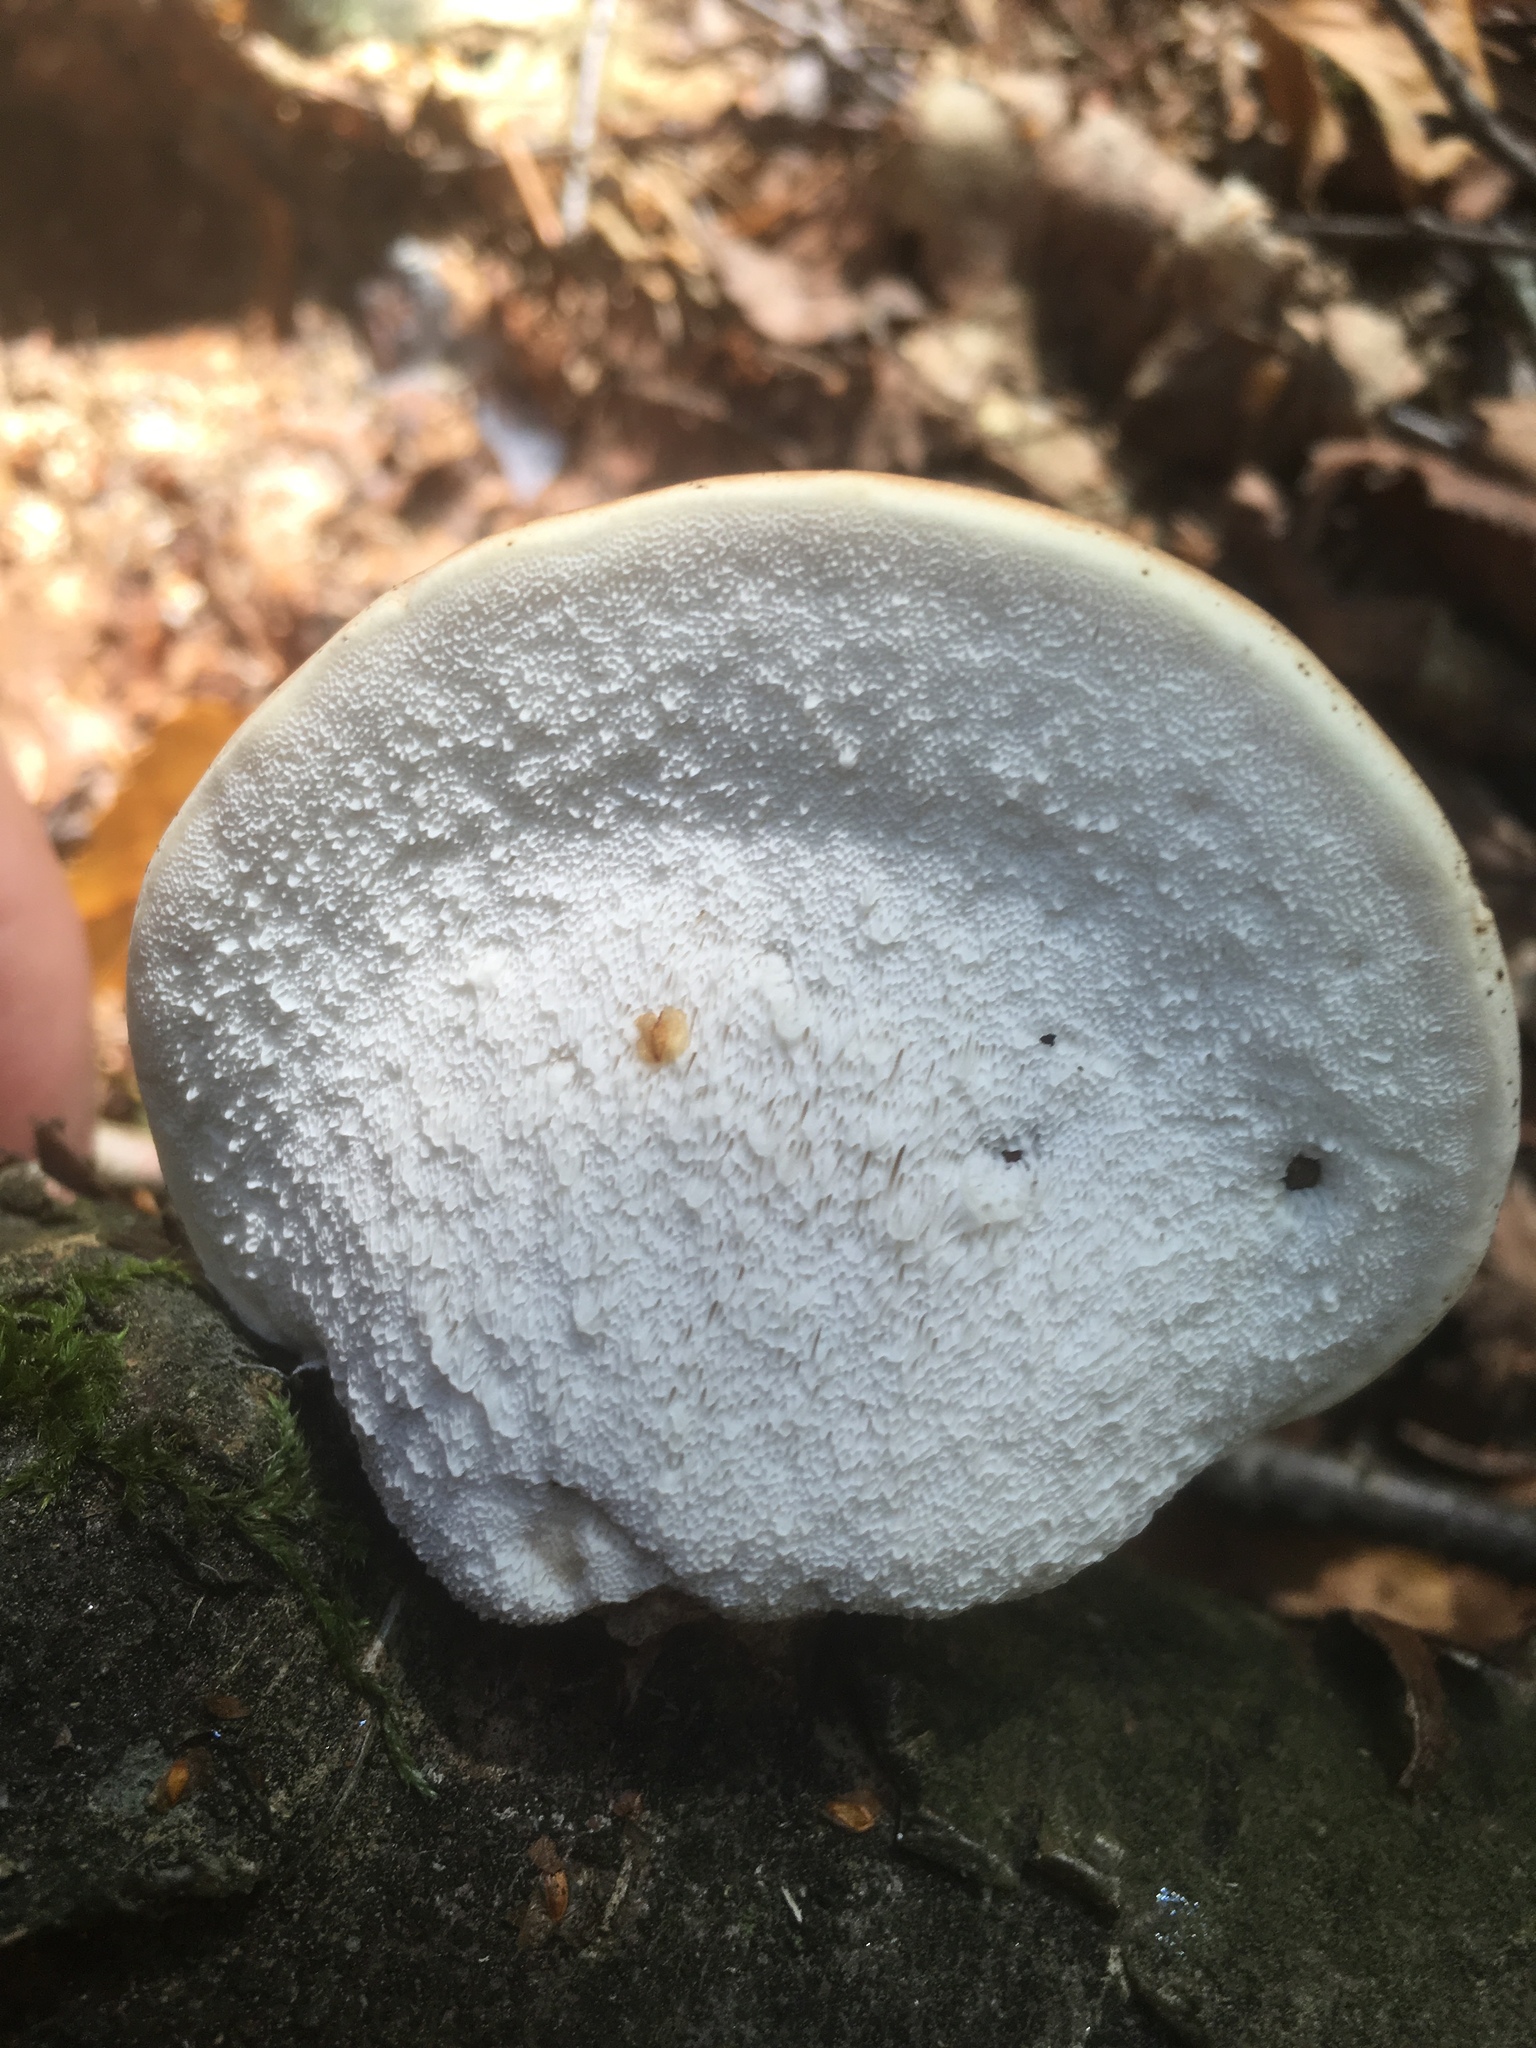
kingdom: Fungi
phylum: Basidiomycota
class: Agaricomycetes
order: Polyporales
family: Fomitopsidaceae
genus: Fomitopsis
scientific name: Fomitopsis betulina
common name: Birch polypore
